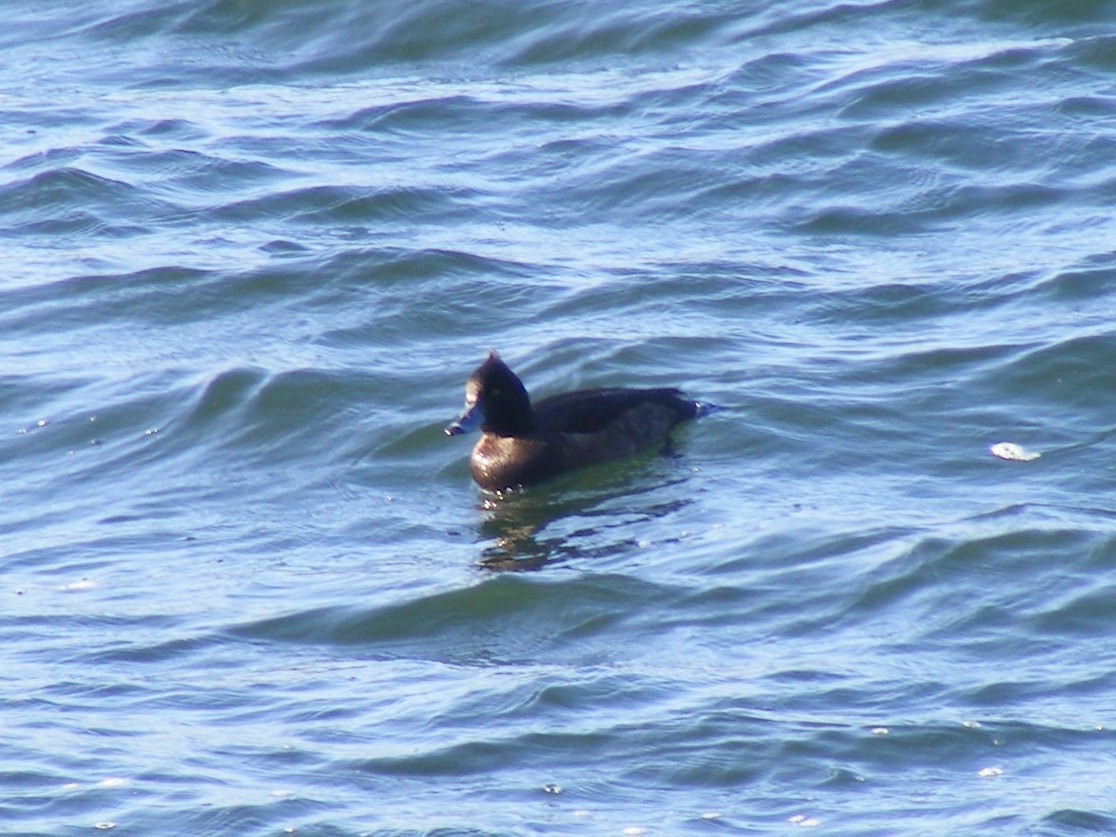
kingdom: Animalia
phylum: Chordata
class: Aves
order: Anseriformes
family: Anatidae
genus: Aythya
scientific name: Aythya fuligula
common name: Tufted duck
